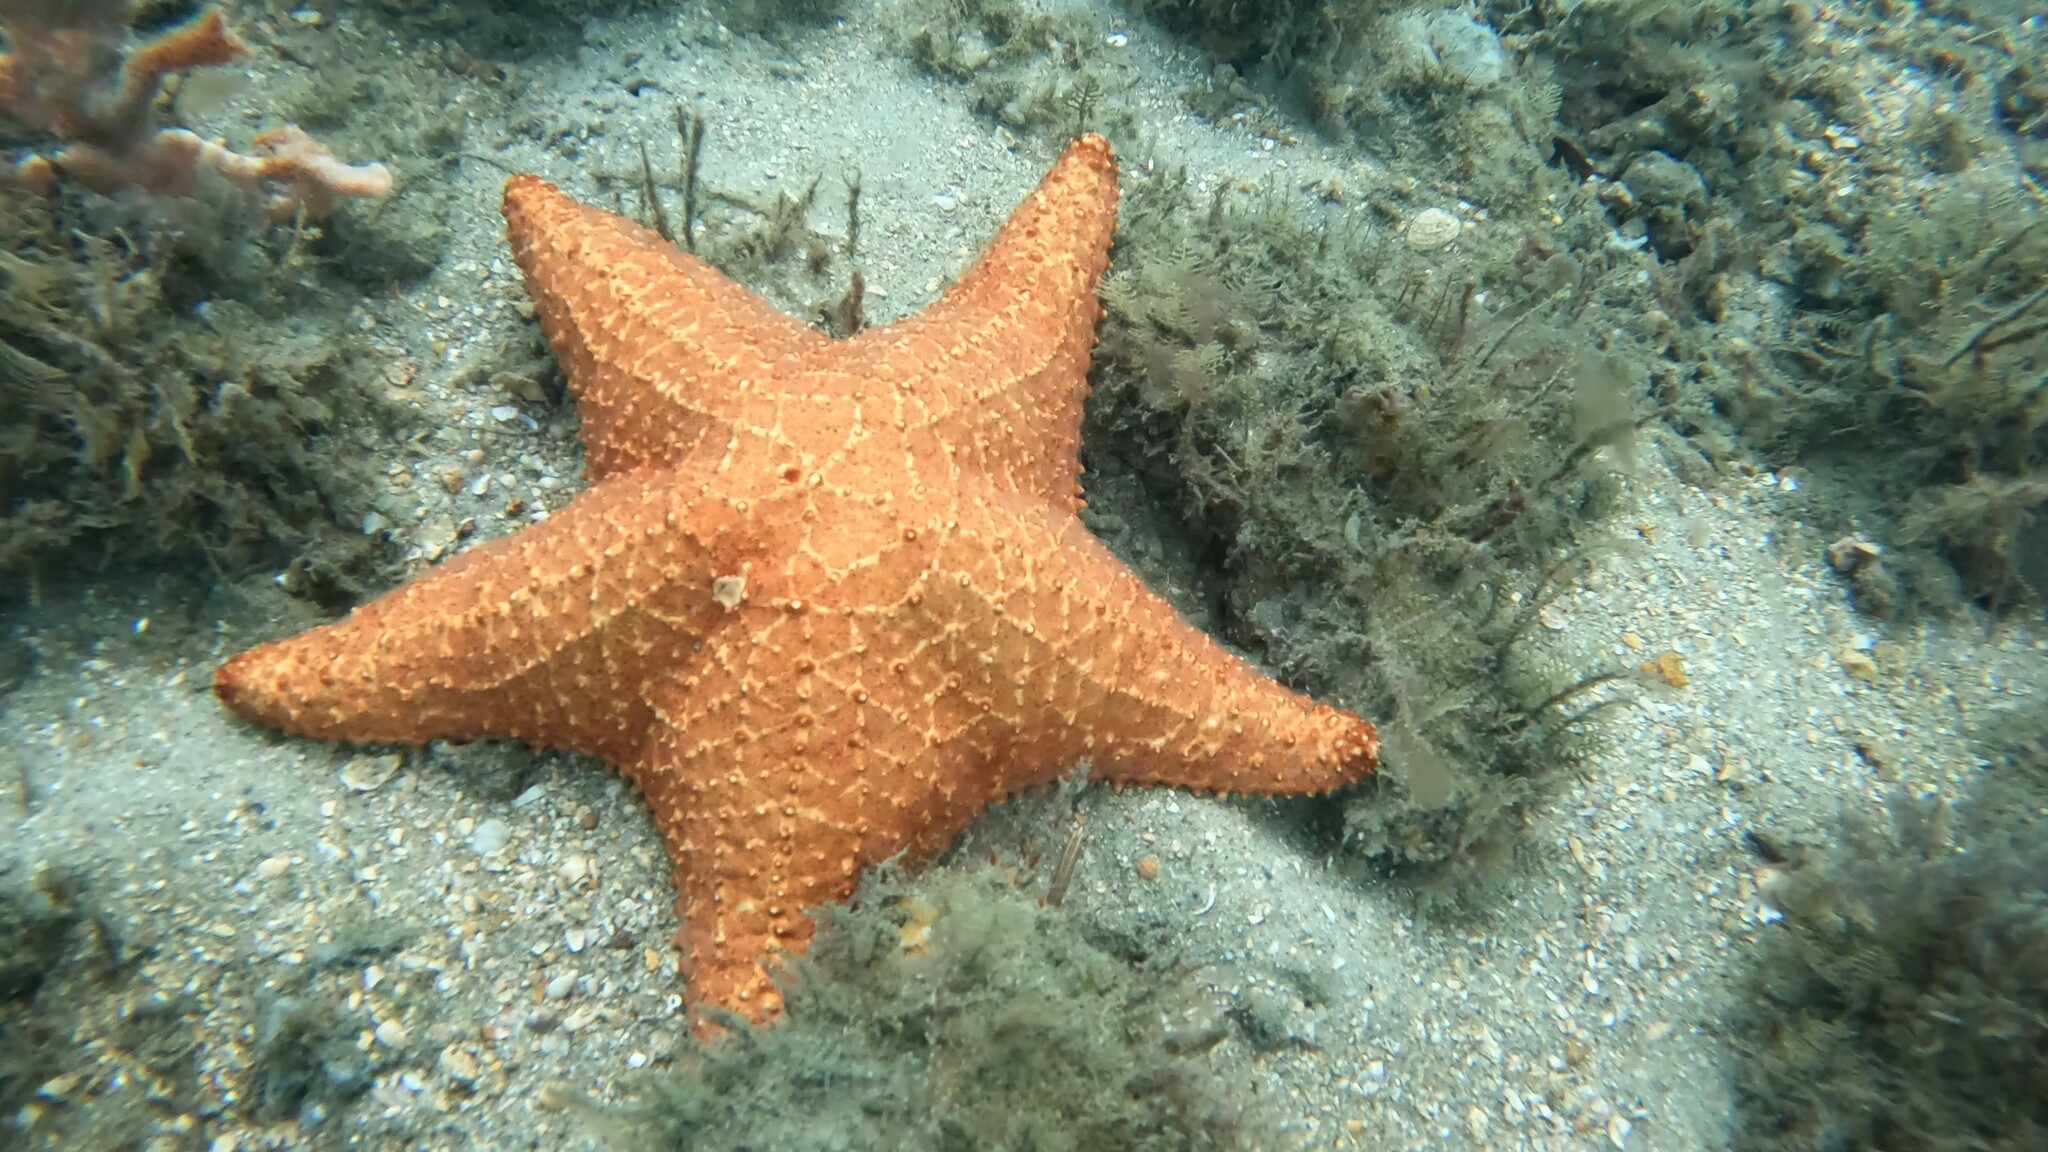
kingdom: Animalia
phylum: Echinodermata
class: Asteroidea
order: Valvatida
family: Oreasteridae
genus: Oreaster
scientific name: Oreaster reticulatus
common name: Cushion sea star
